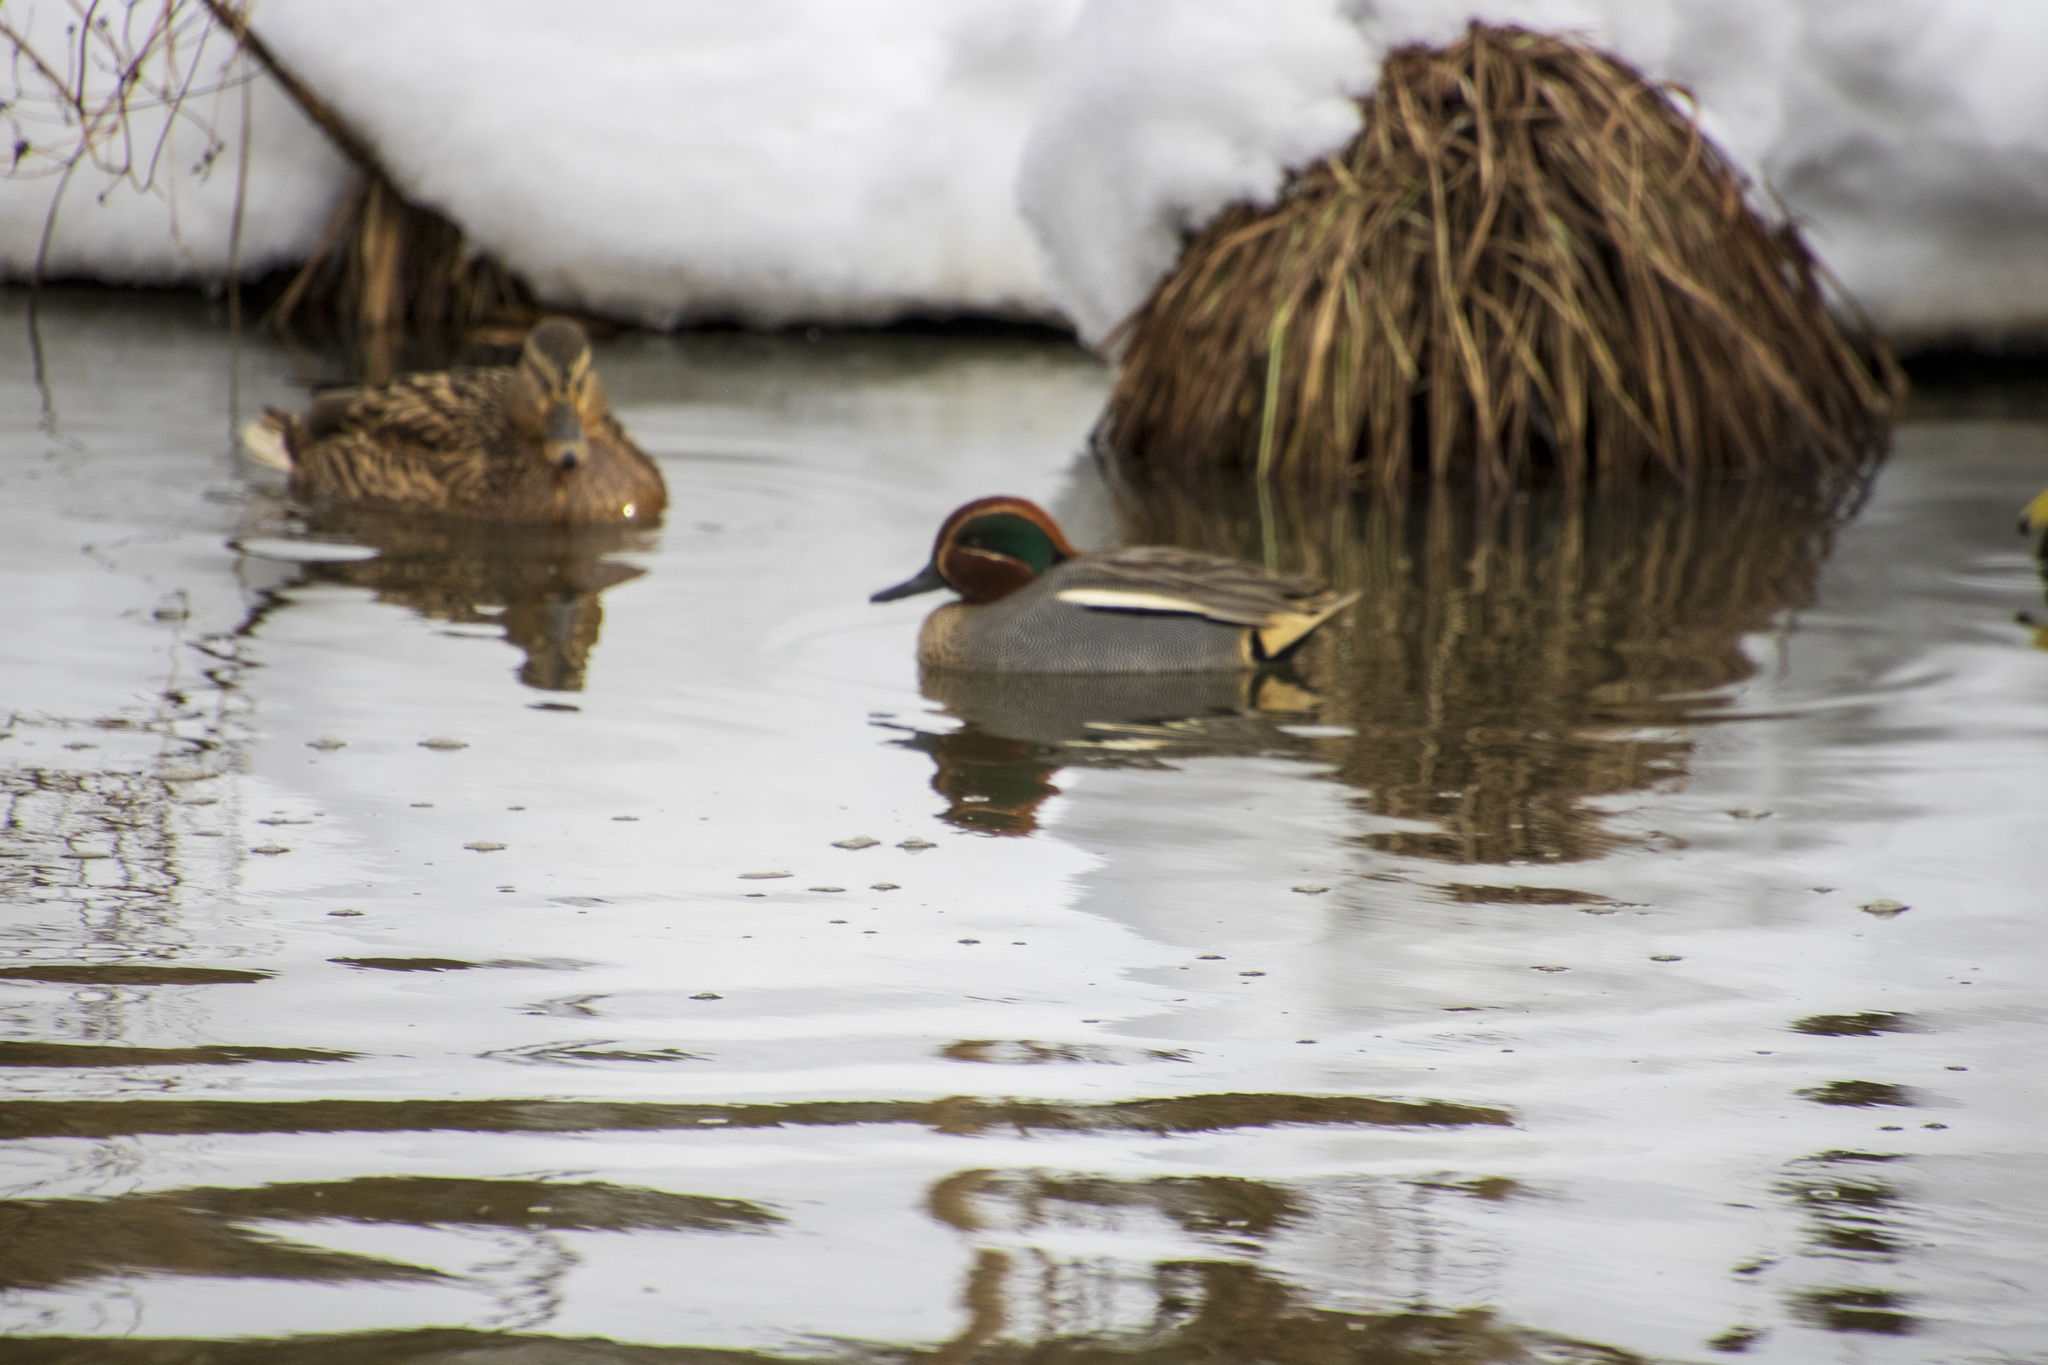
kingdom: Animalia
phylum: Chordata
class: Aves
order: Anseriformes
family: Anatidae
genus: Anas
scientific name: Anas crecca
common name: Eurasian teal
